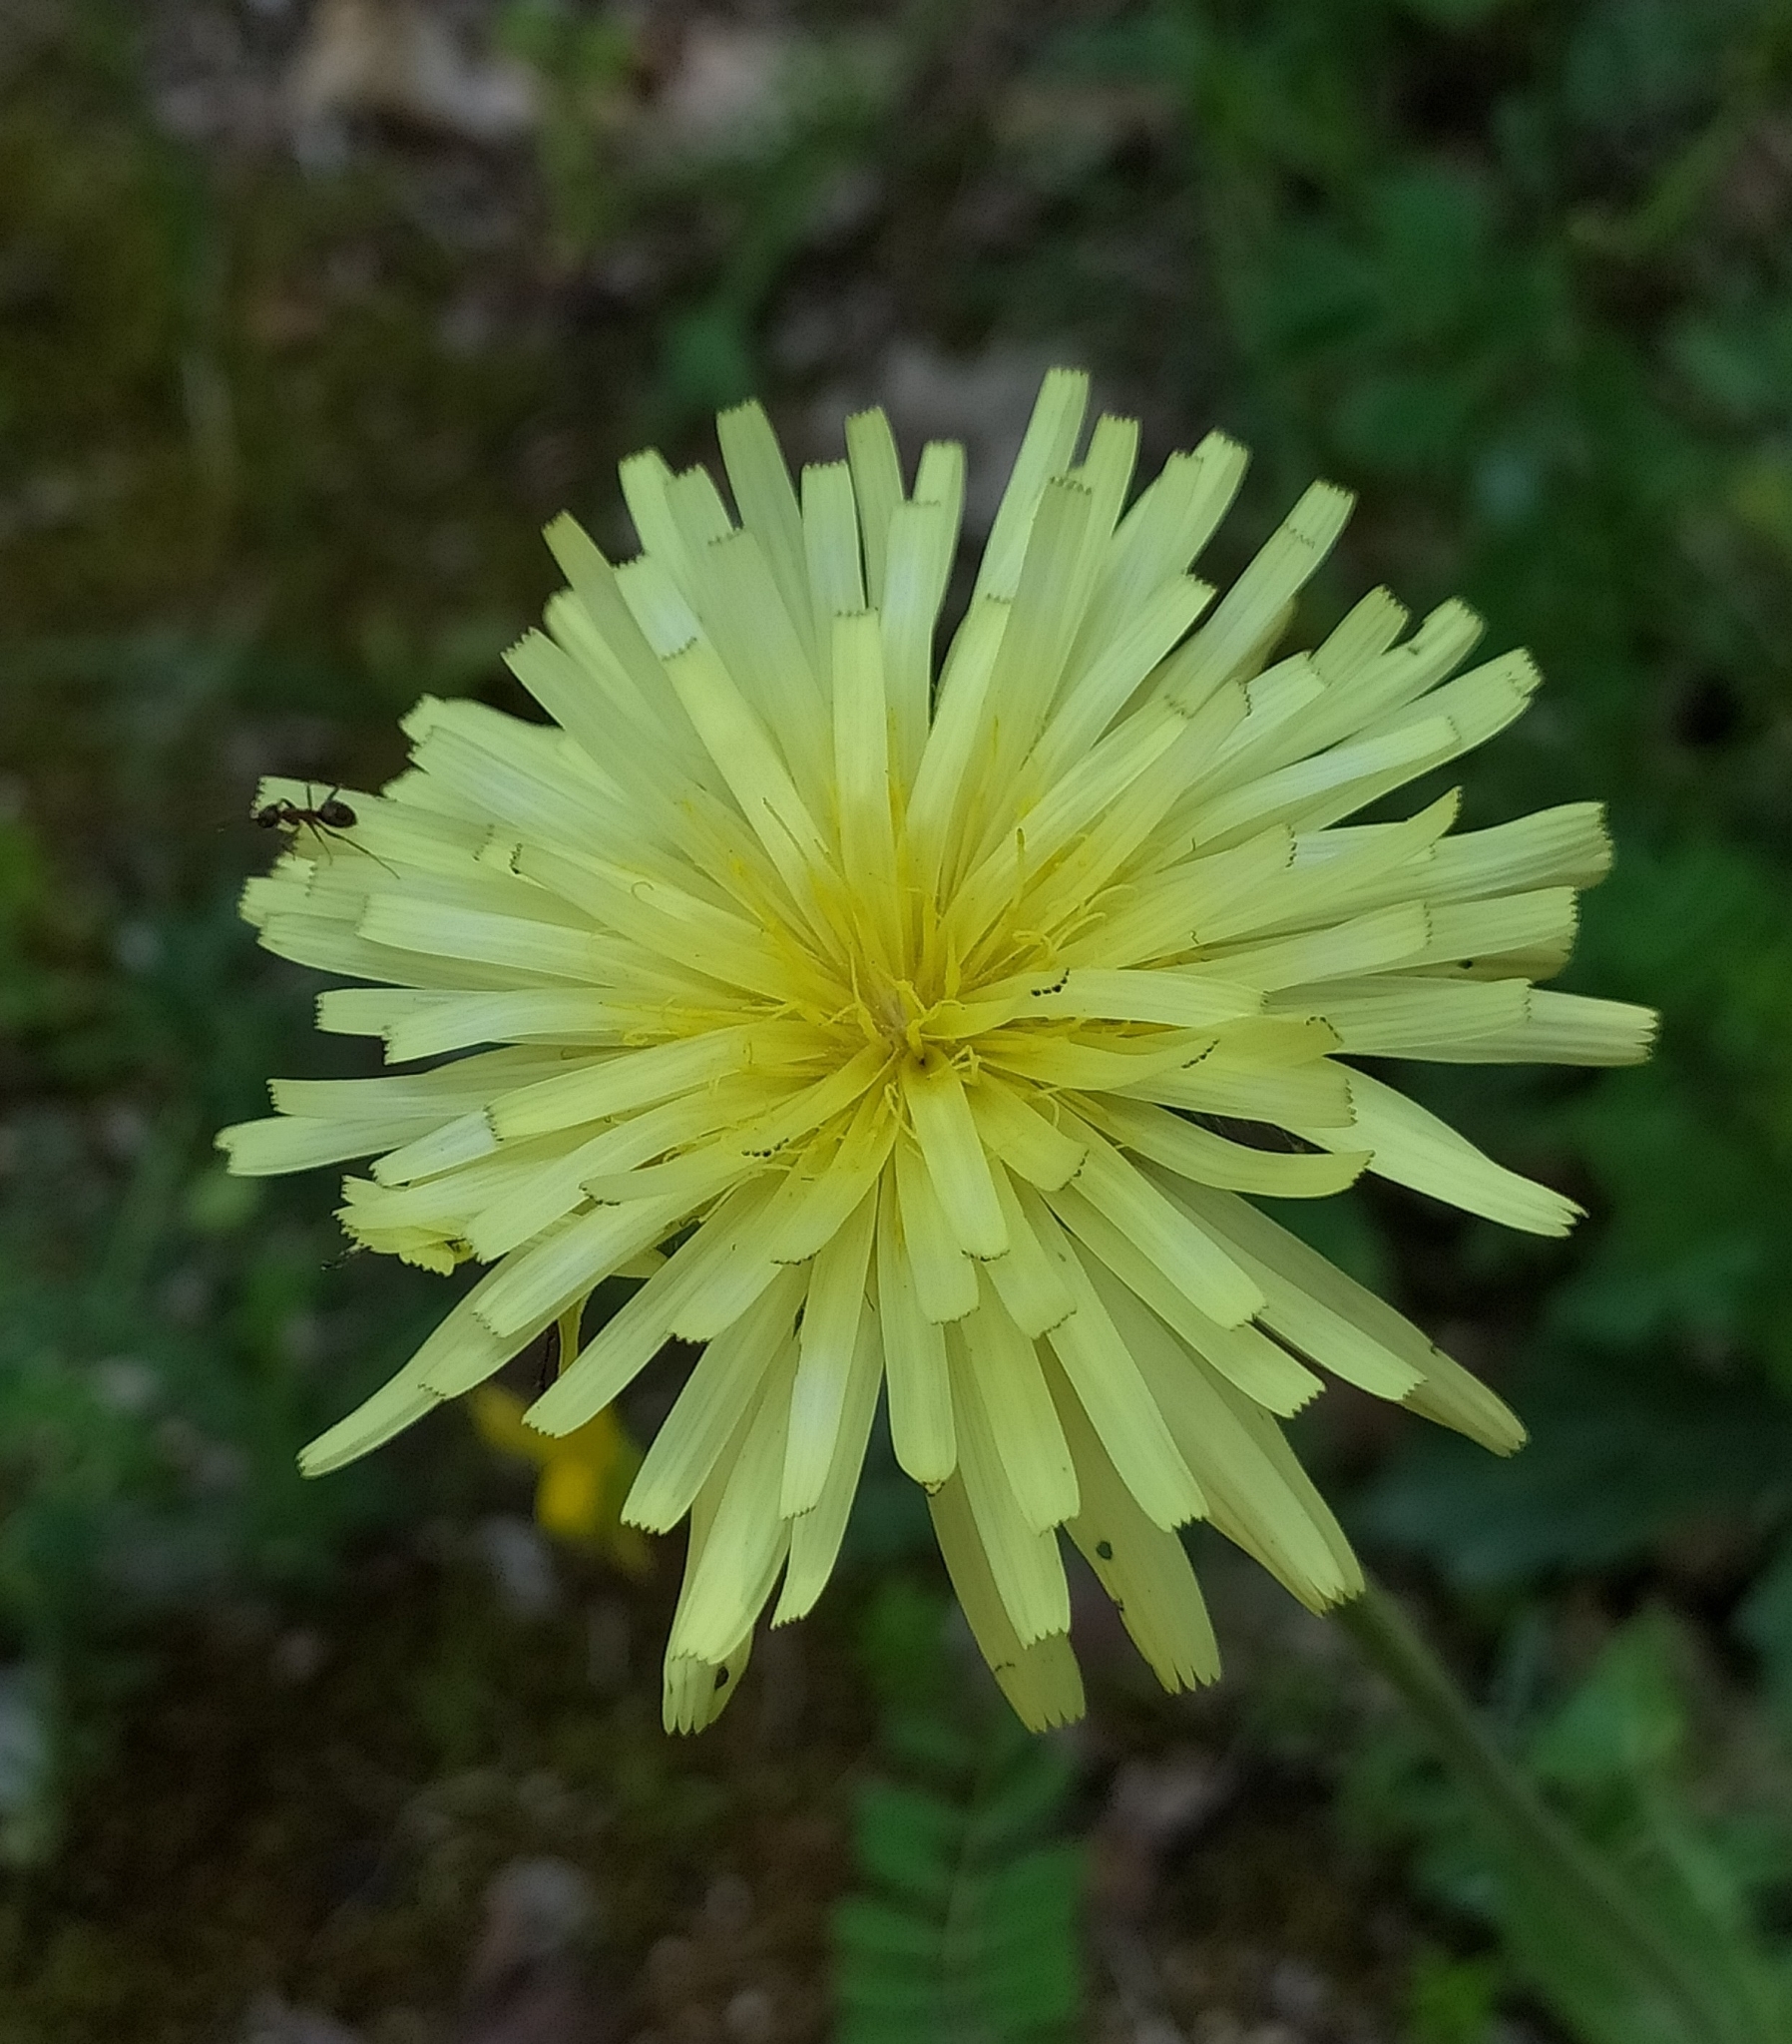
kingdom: Plantae
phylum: Tracheophyta
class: Magnoliopsida
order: Asterales
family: Asteraceae
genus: Urospermum
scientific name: Urospermum dalechampii
